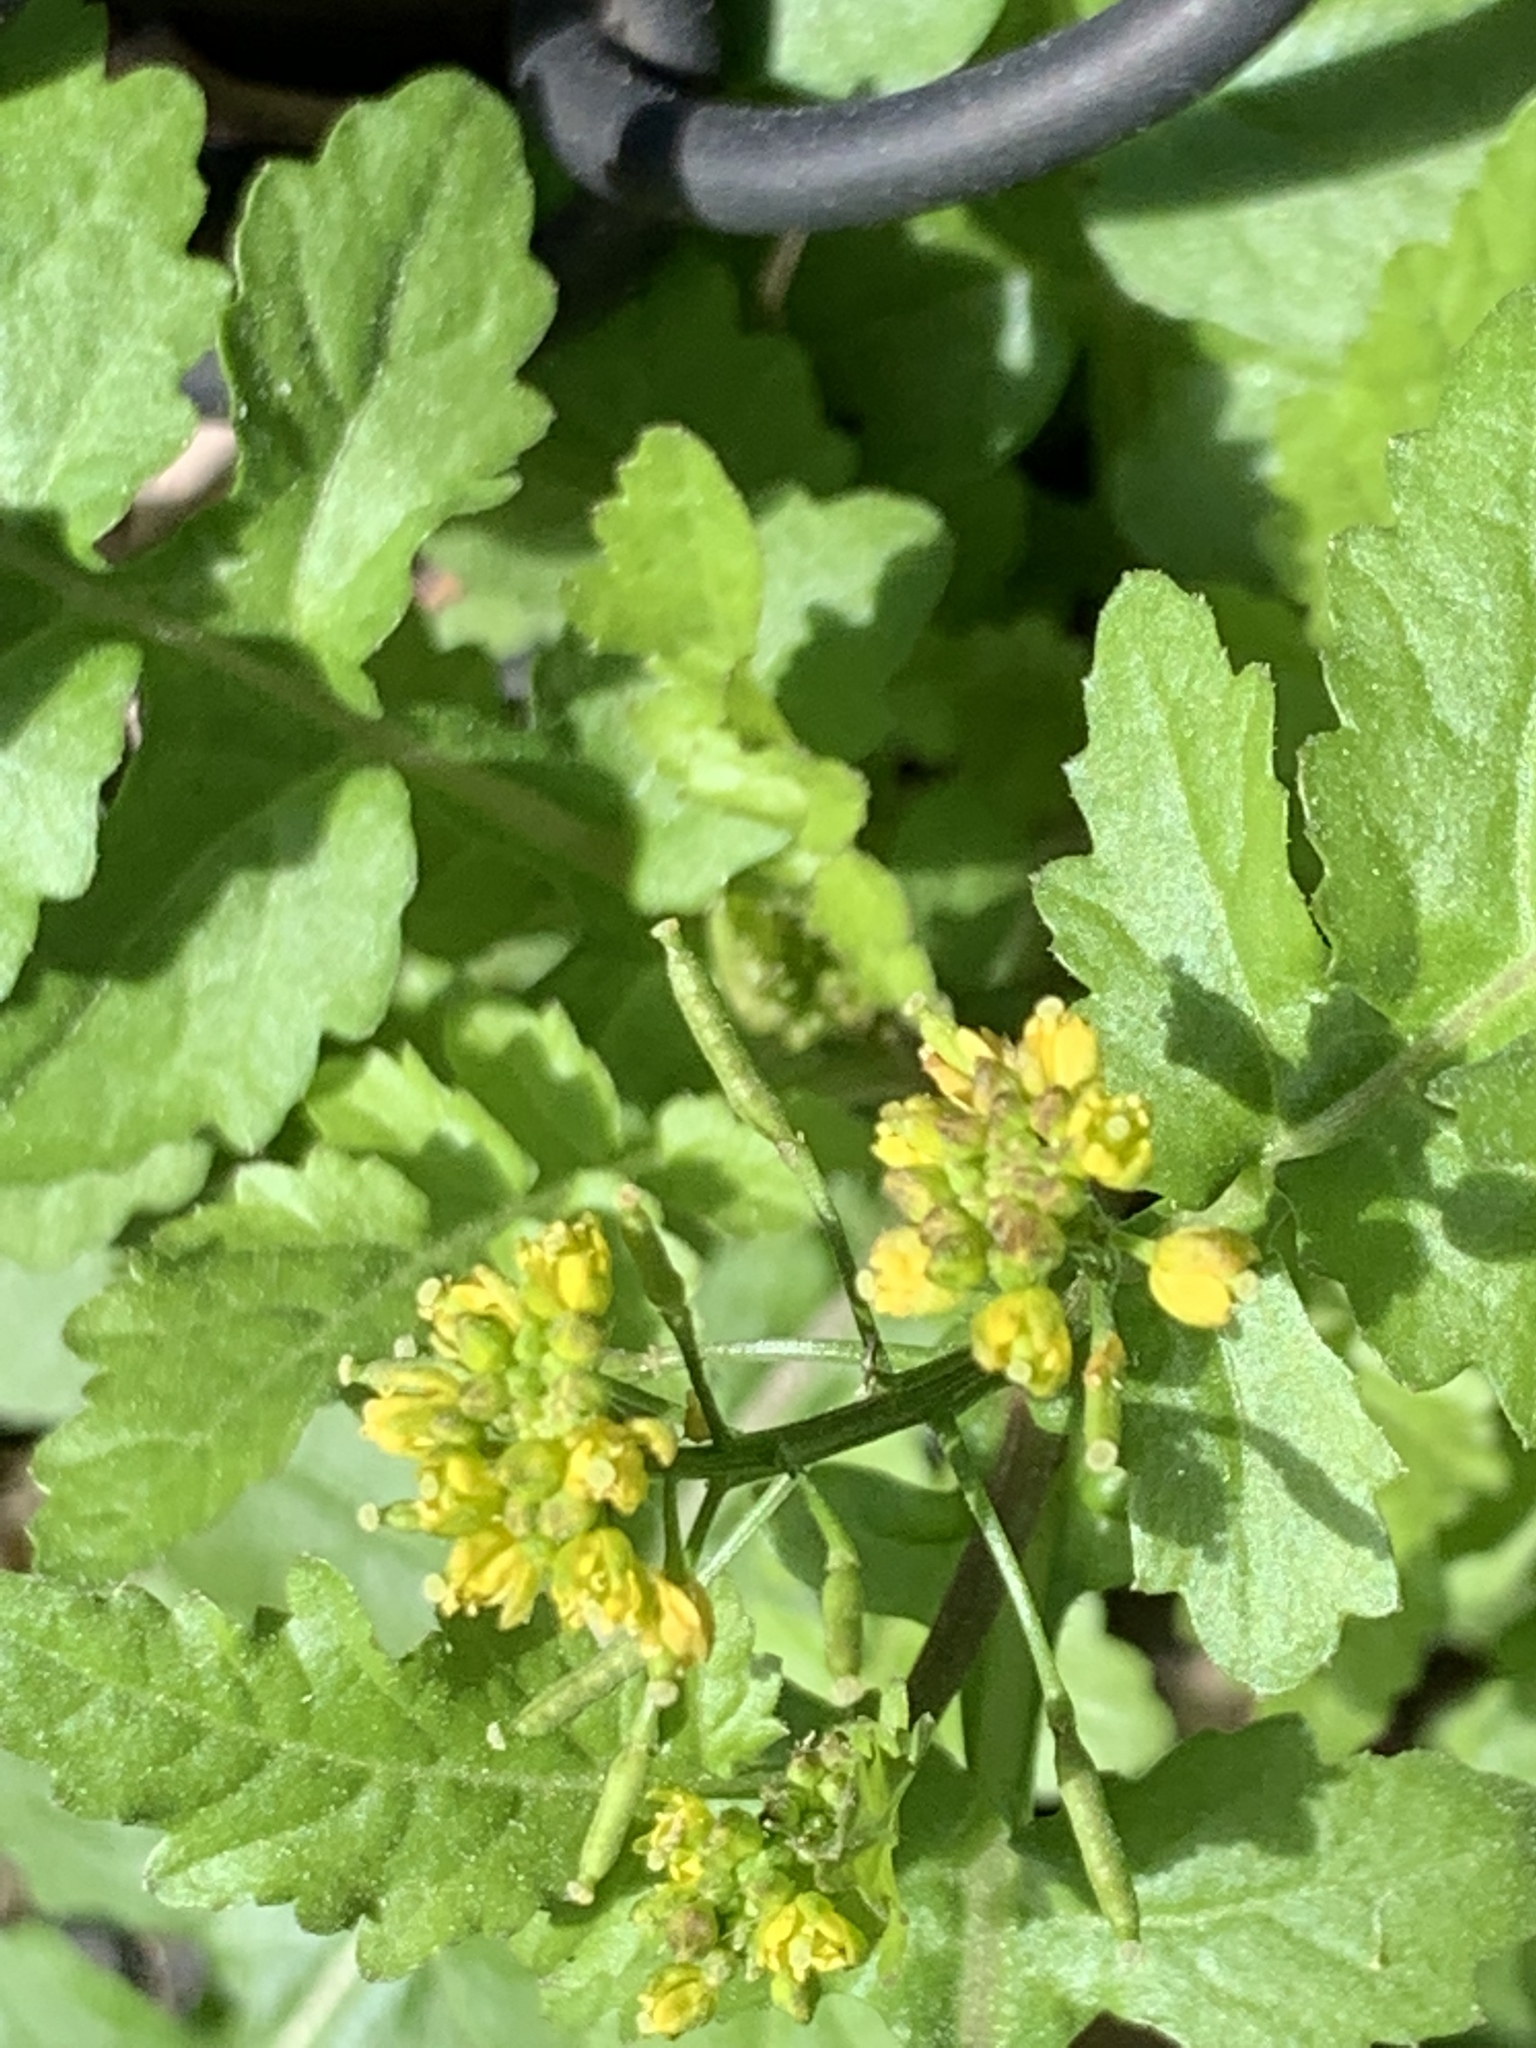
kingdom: Plantae
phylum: Tracheophyta
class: Magnoliopsida
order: Brassicales
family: Brassicaceae
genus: Rorippa
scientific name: Rorippa palustris
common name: Marsh yellow-cress
